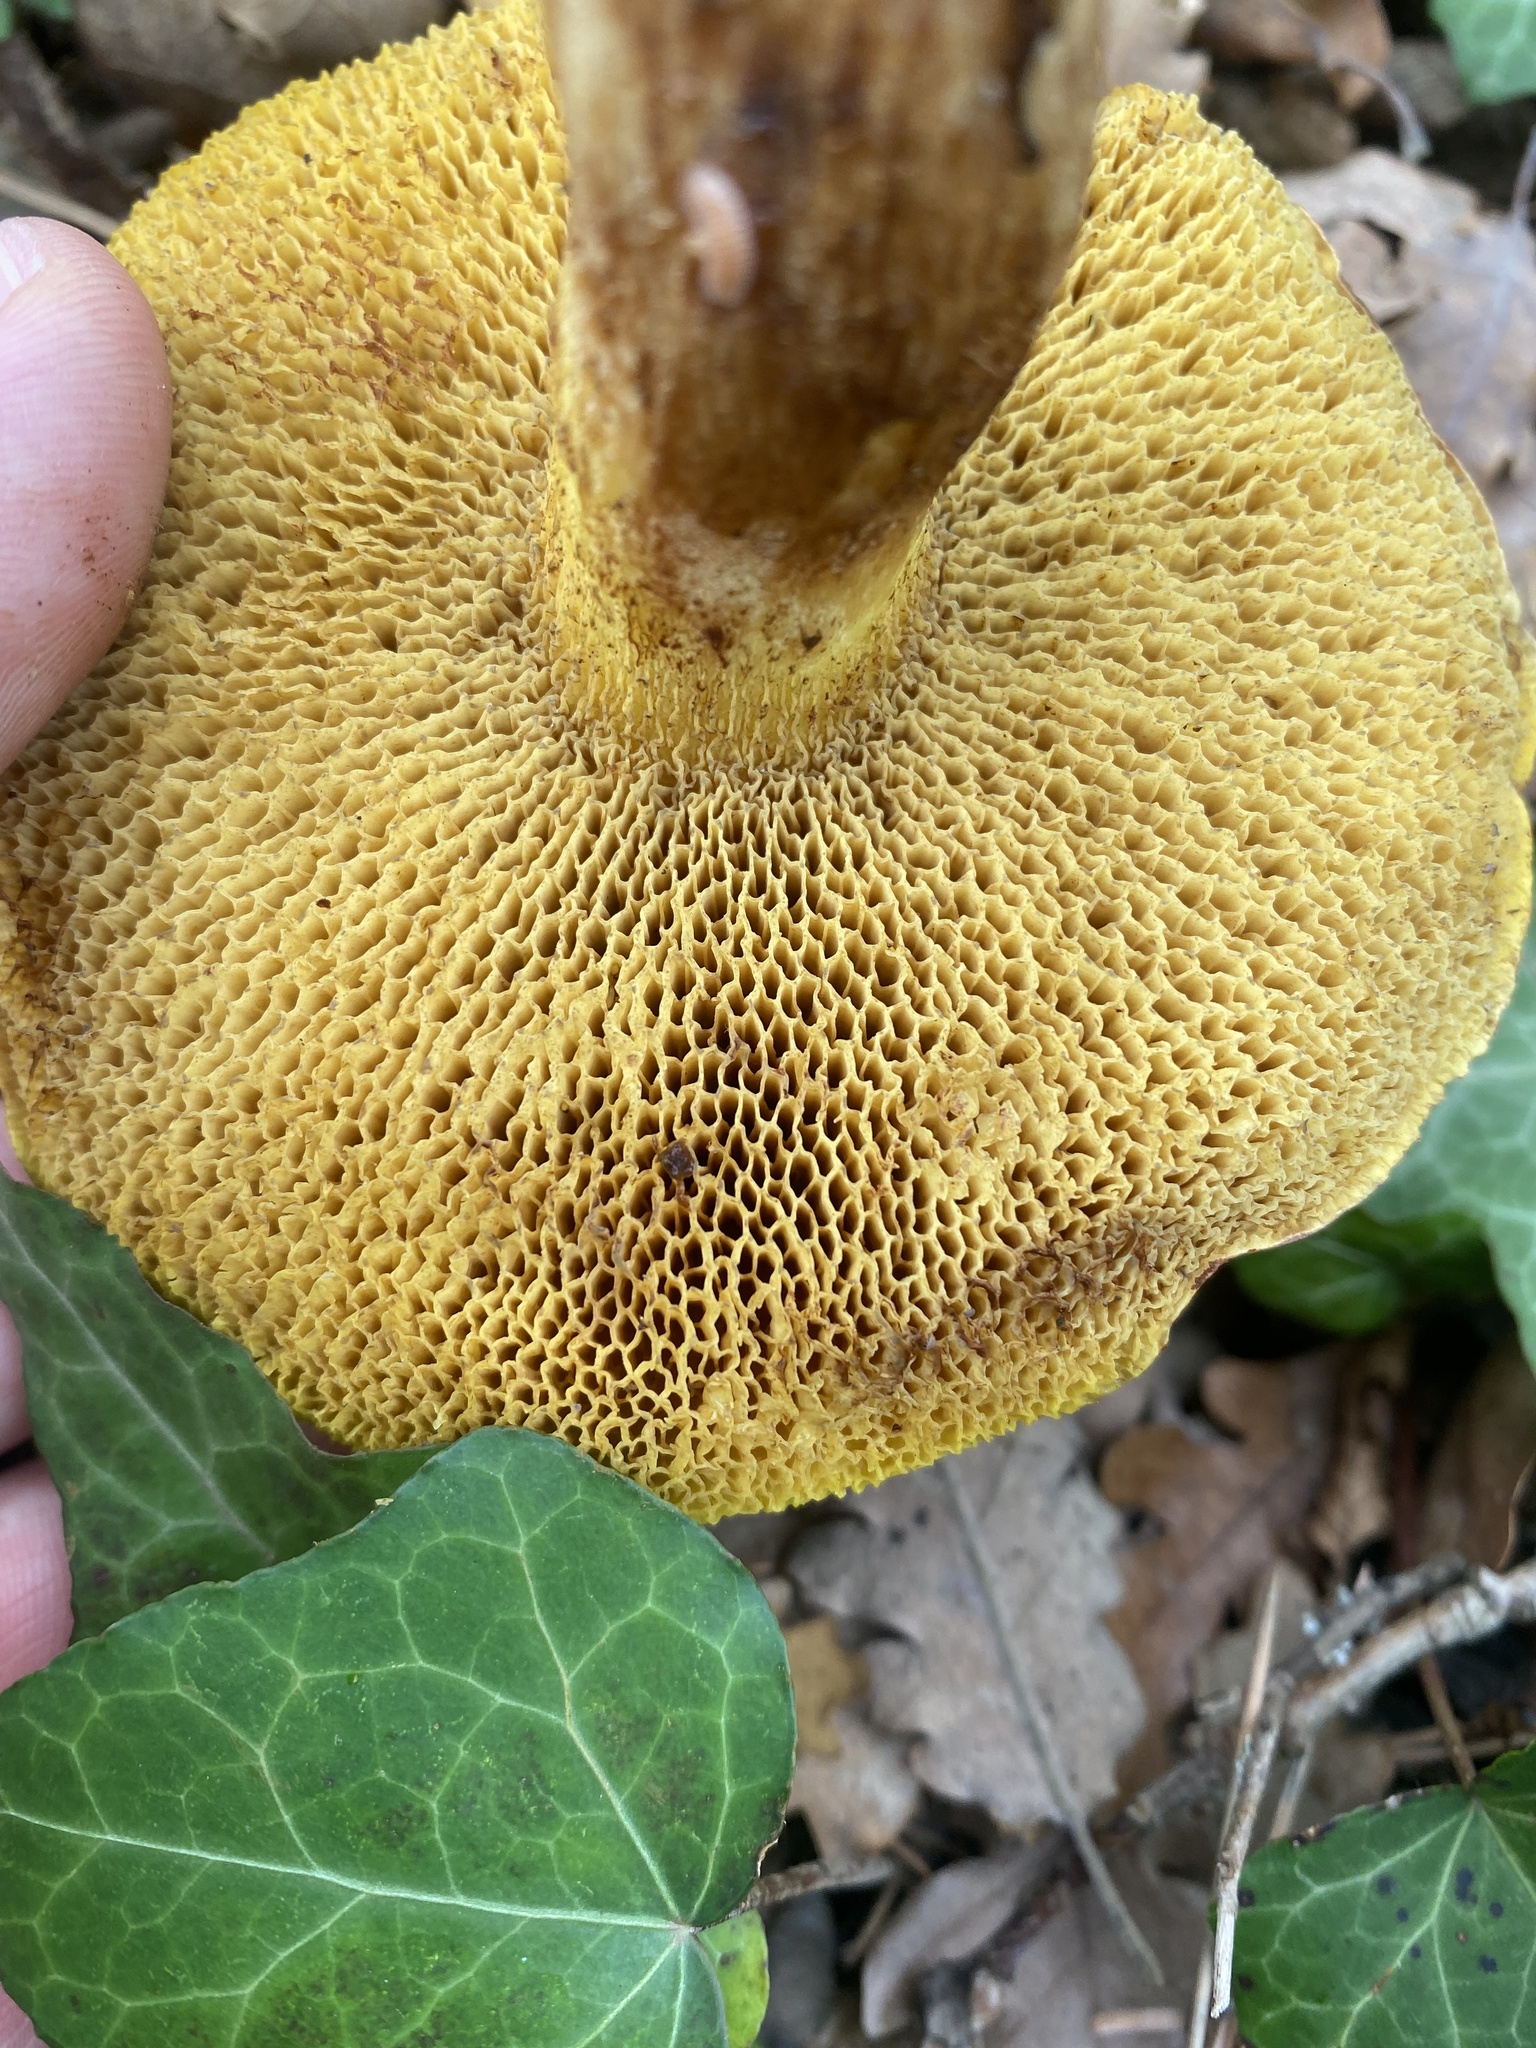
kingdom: Fungi
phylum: Basidiomycota
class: Agaricomycetes
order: Boletales
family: Suillaceae
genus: Suillus
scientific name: Suillus collinitus
